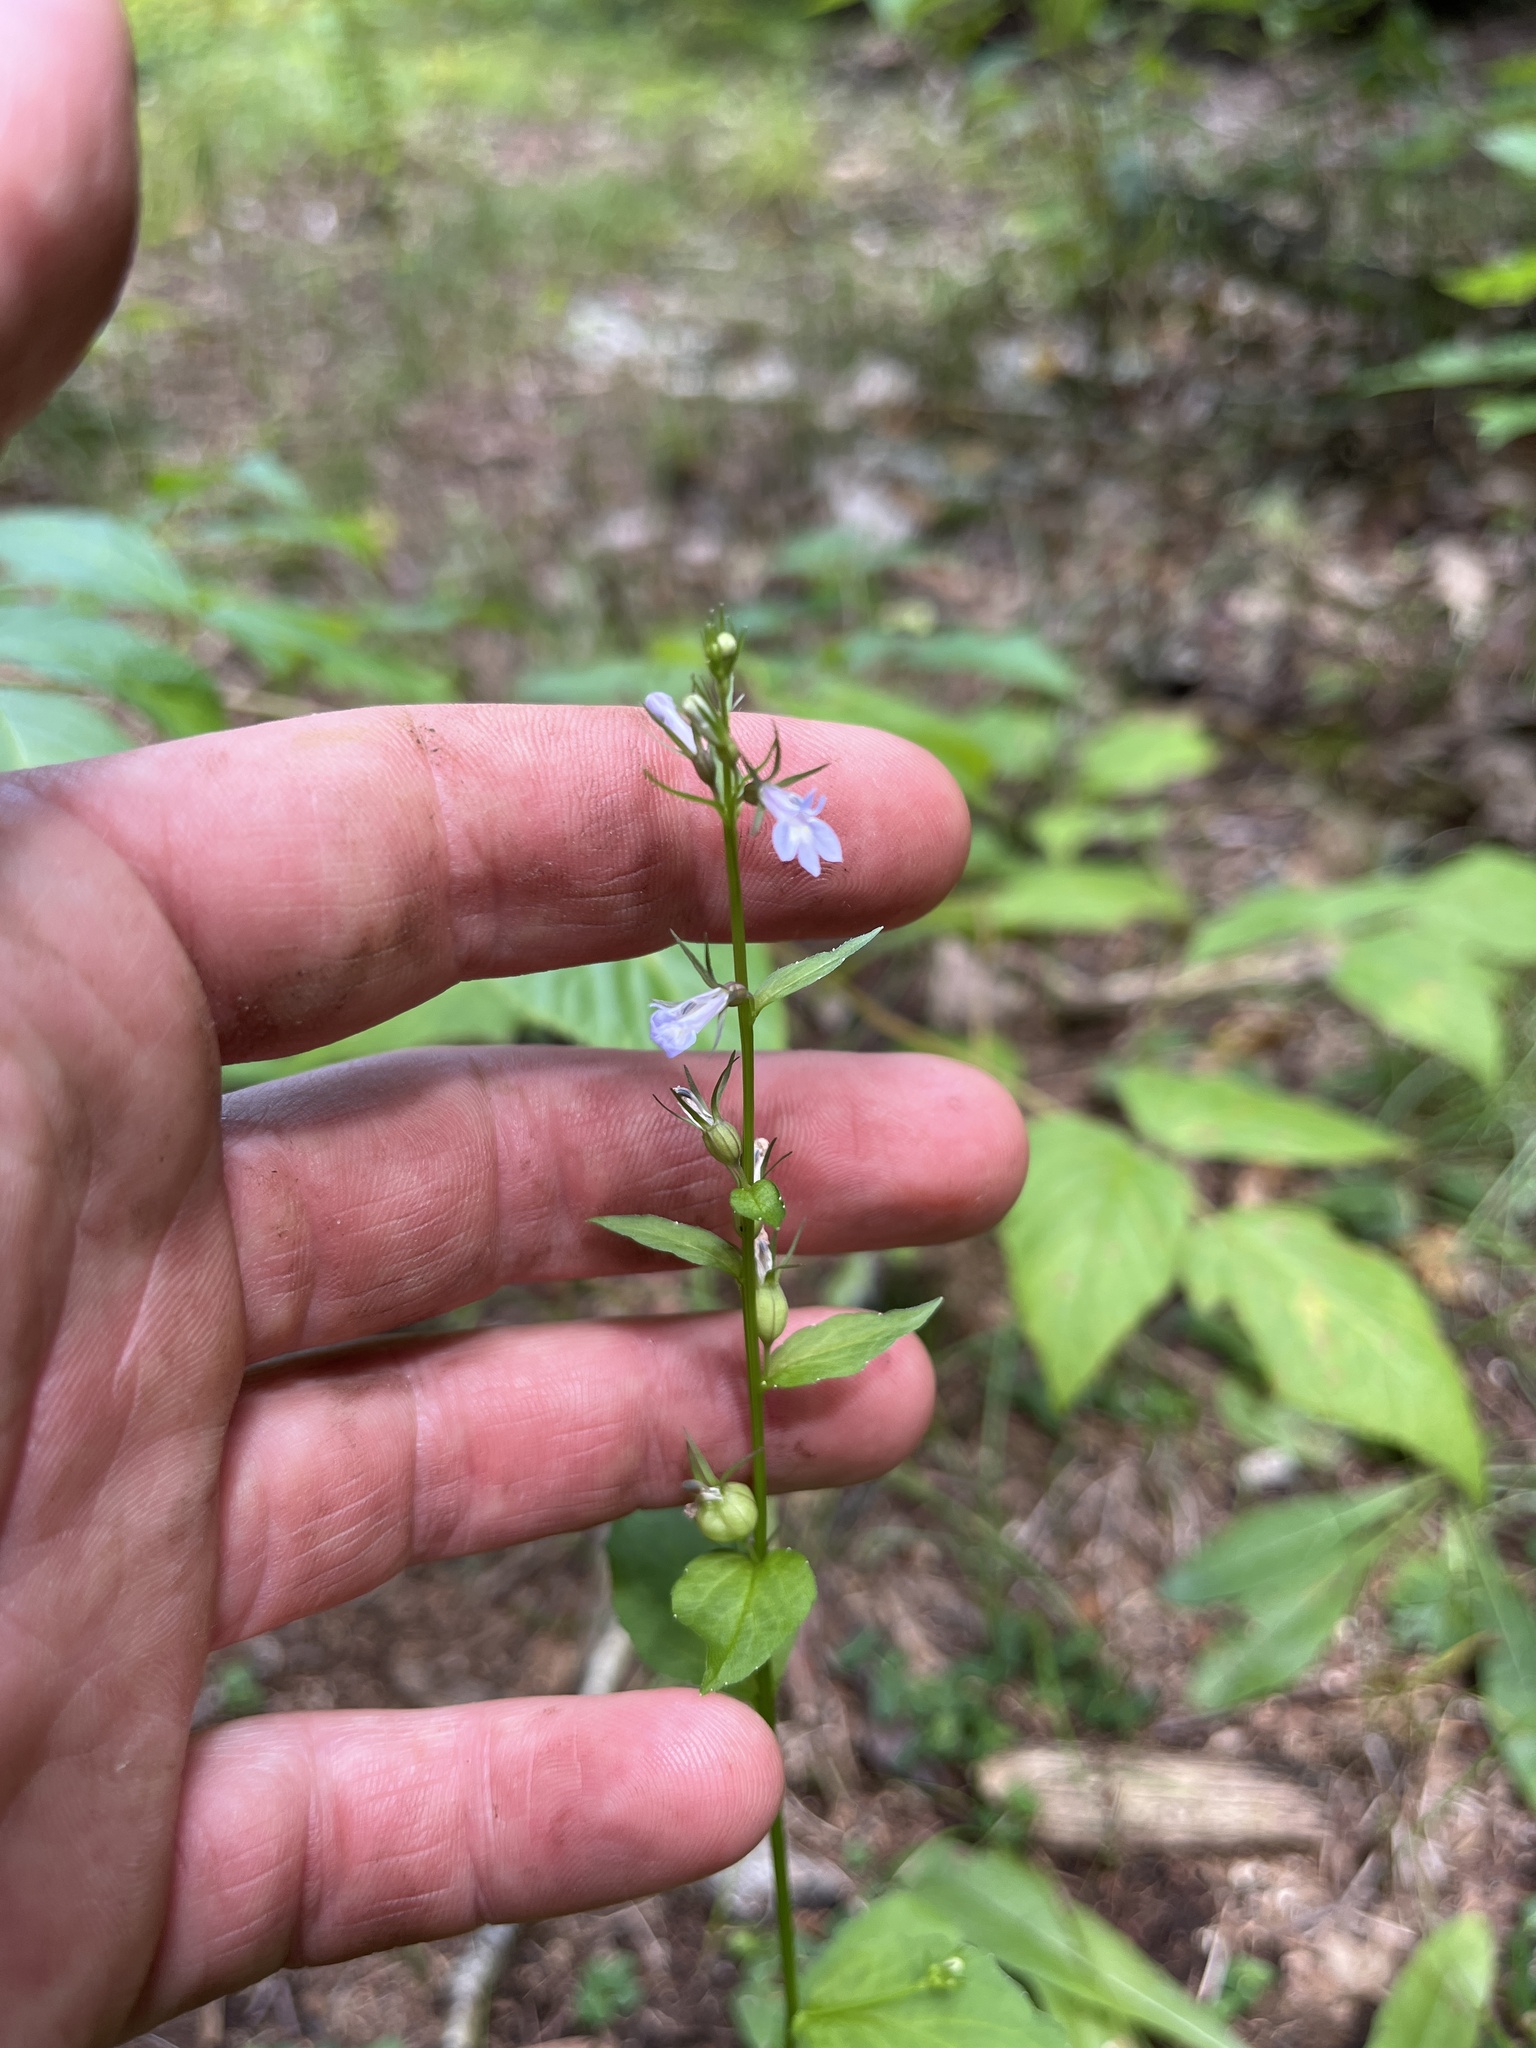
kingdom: Plantae
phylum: Tracheophyta
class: Magnoliopsida
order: Asterales
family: Campanulaceae
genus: Lobelia
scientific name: Lobelia inflata
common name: Indian tobacco
